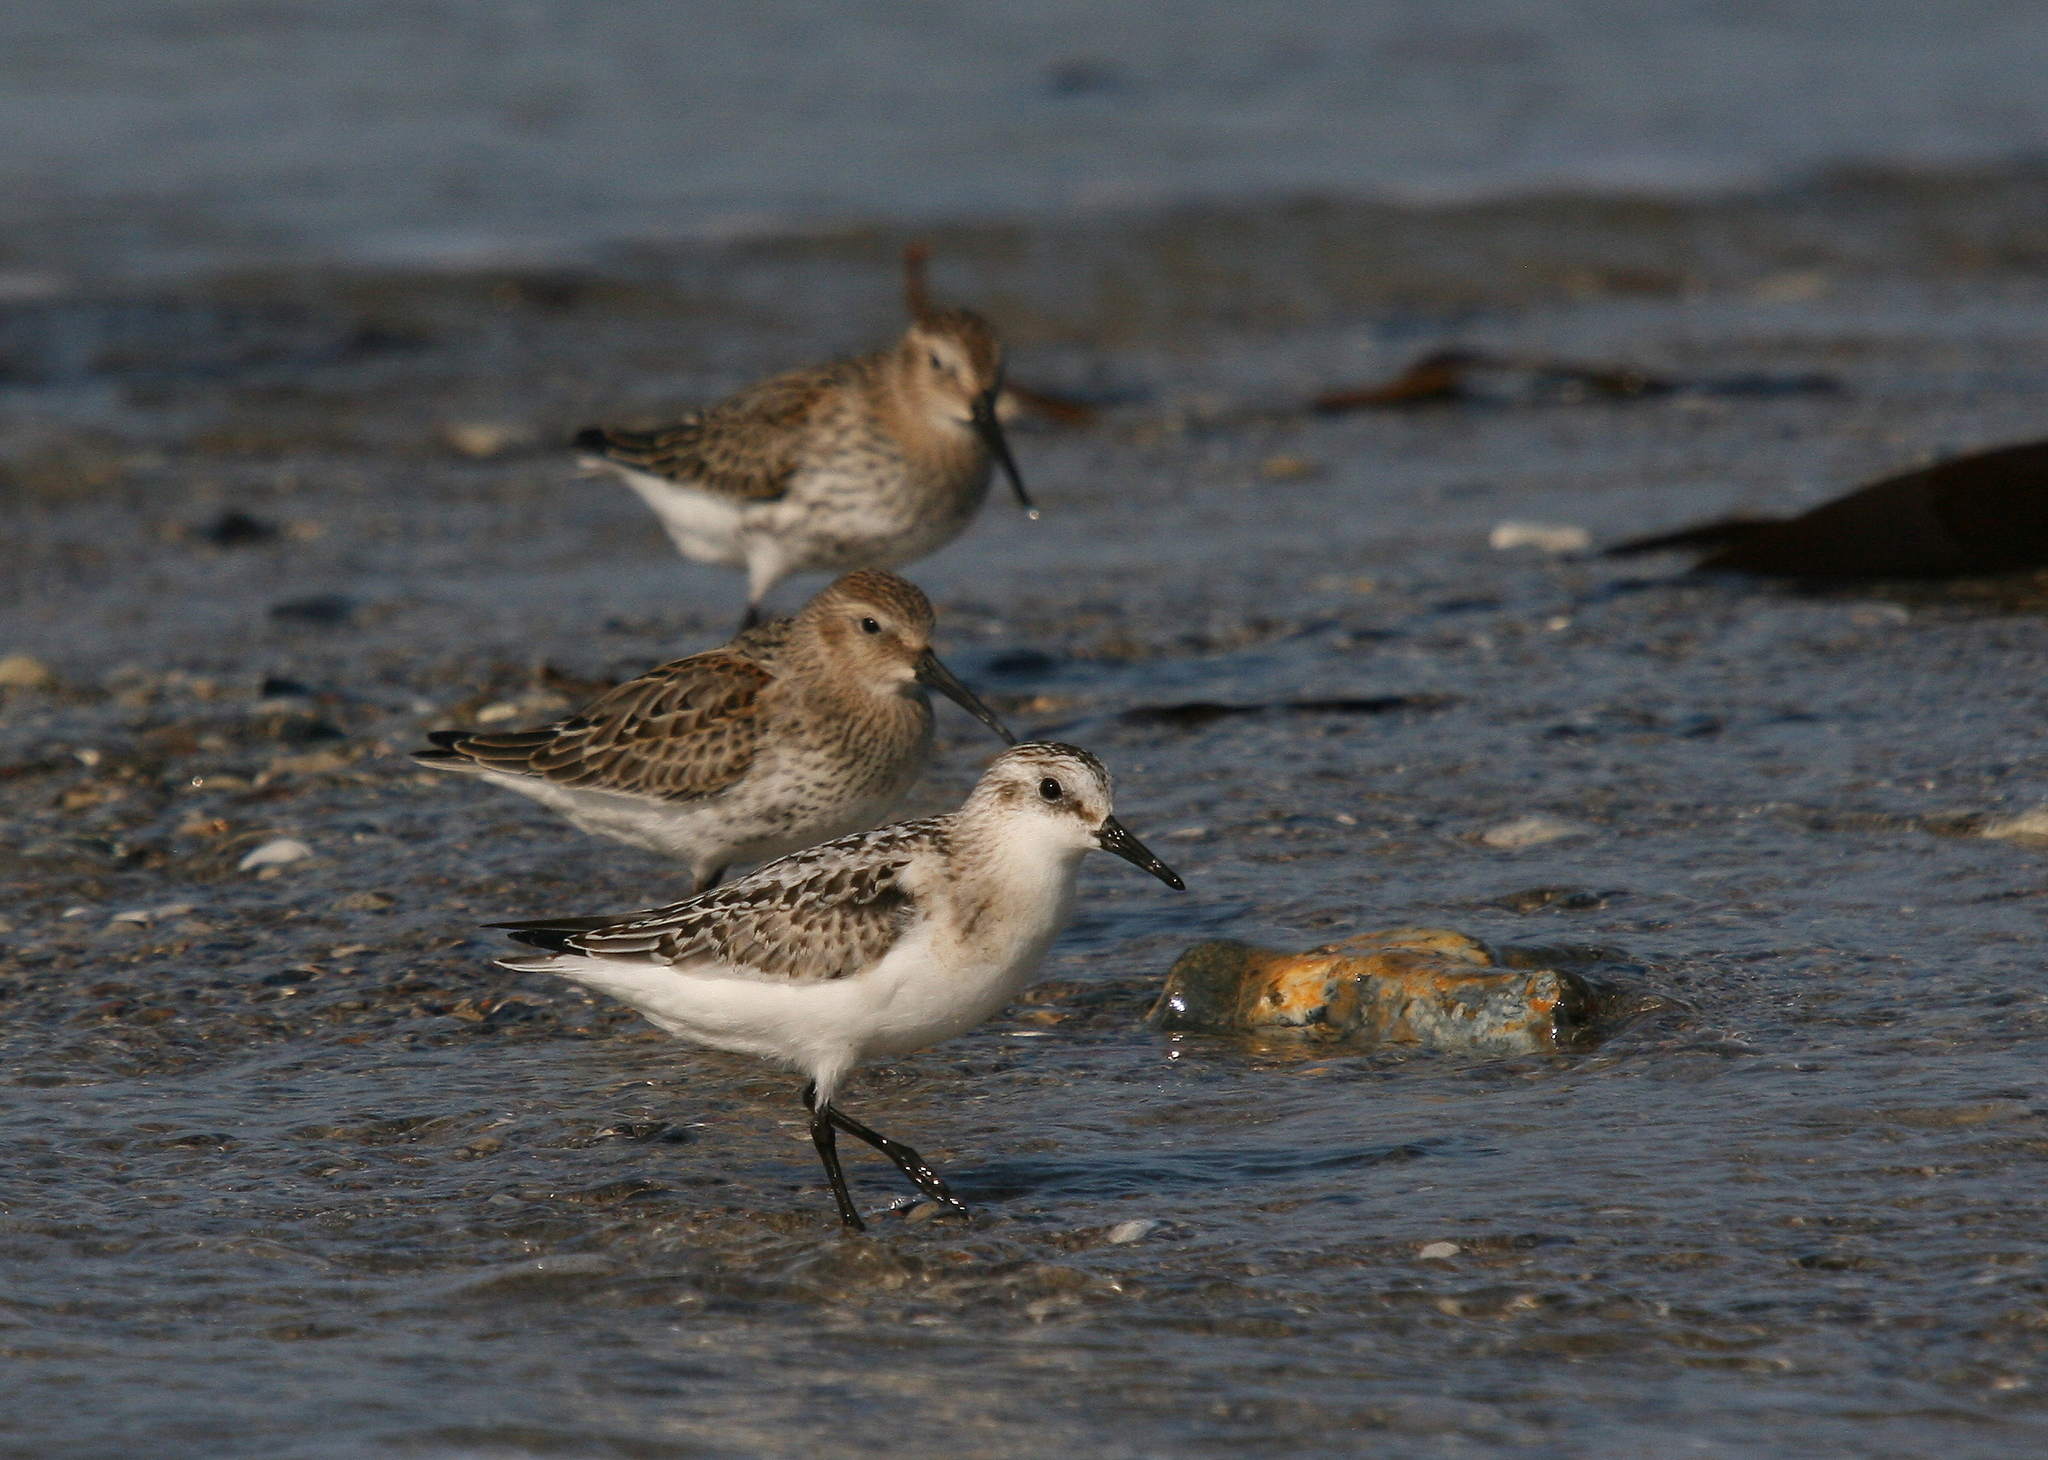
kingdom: Animalia
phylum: Chordata
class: Aves
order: Charadriiformes
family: Scolopacidae
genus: Calidris
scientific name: Calidris alba
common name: Sanderling
